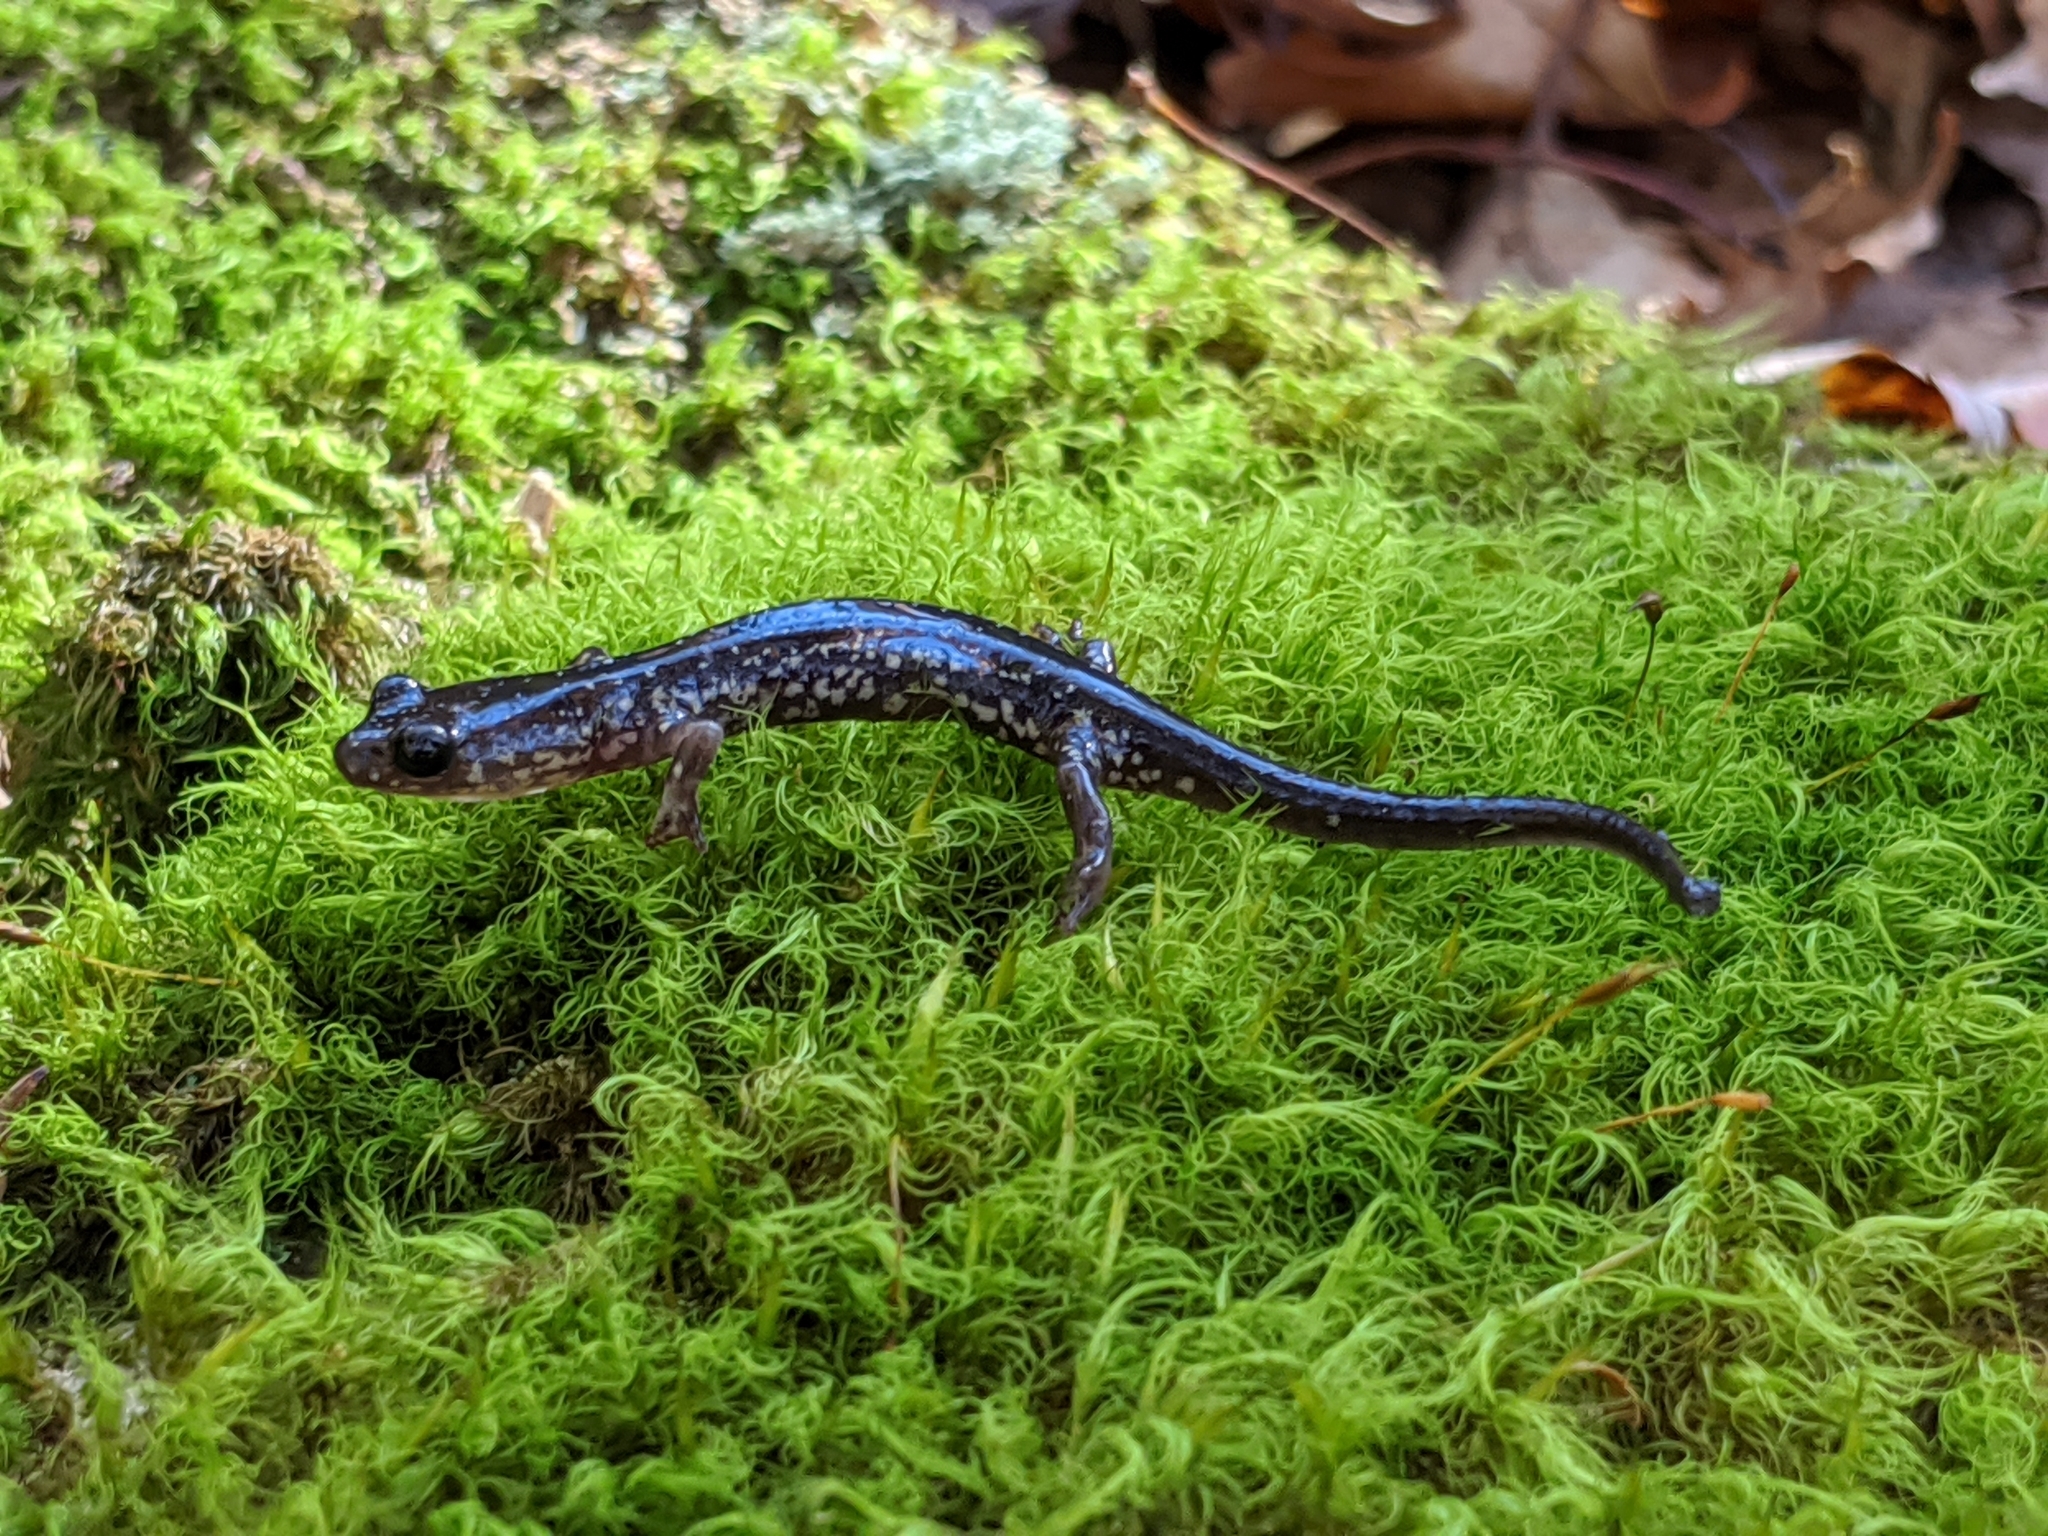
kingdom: Animalia
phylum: Chordata
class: Amphibia
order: Caudata
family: Plethodontidae
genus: Plethodon
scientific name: Plethodon punctatus
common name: White-spotted salamander
